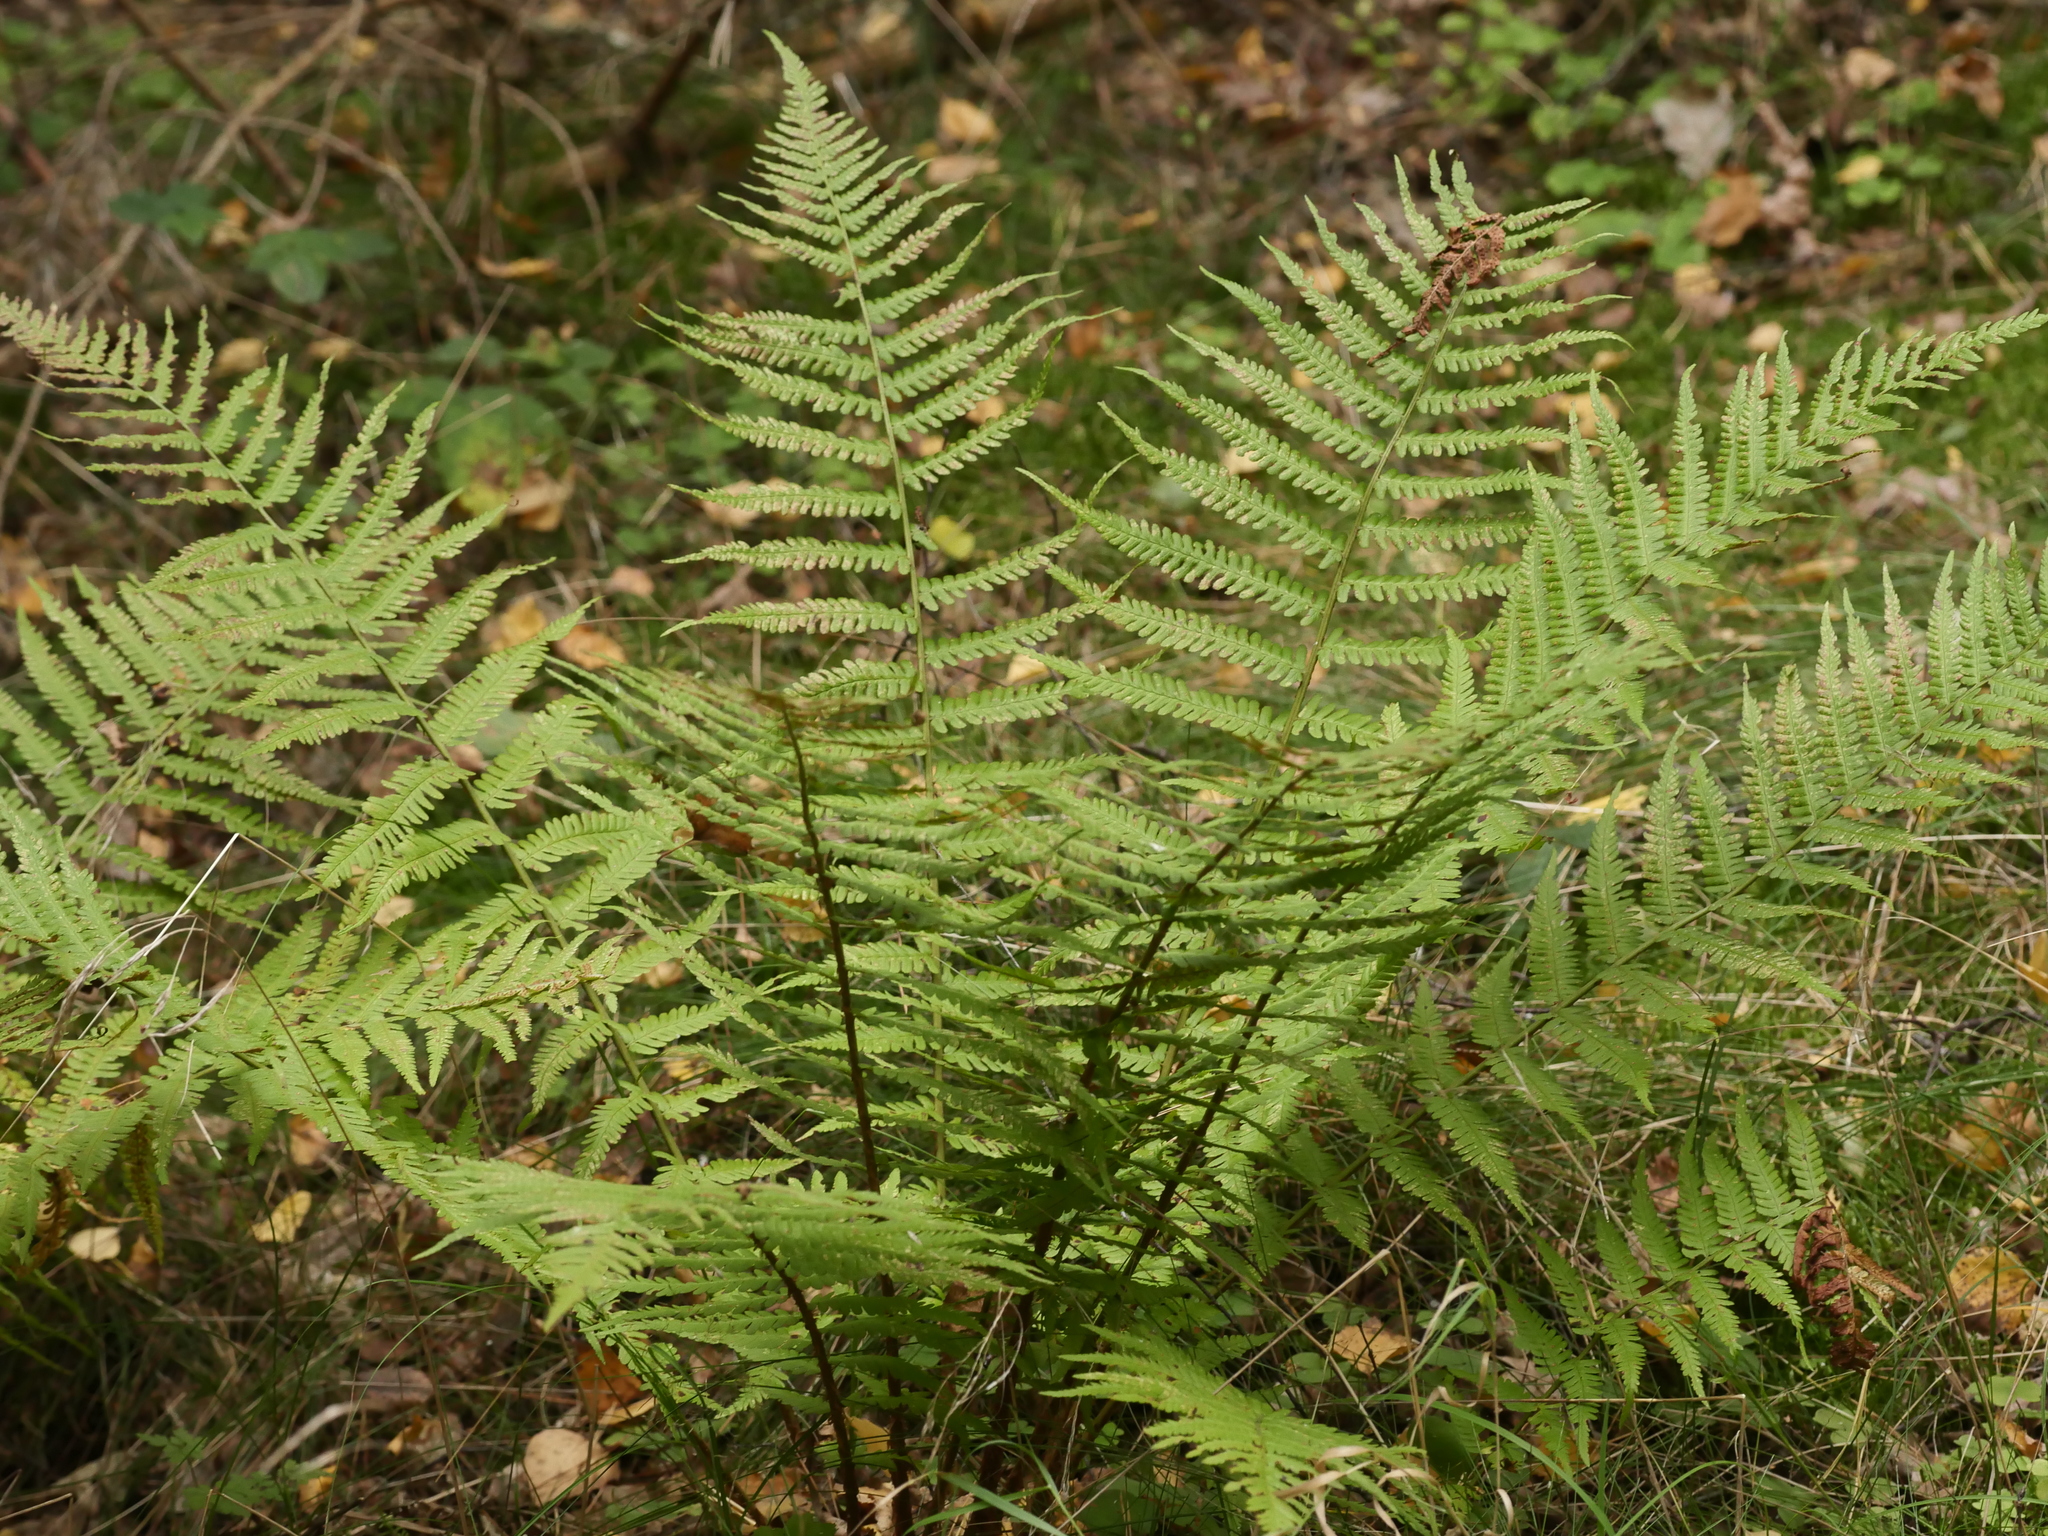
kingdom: Plantae
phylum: Tracheophyta
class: Polypodiopsida
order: Polypodiales
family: Dryopteridaceae
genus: Dryopteris
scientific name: Dryopteris filix-mas
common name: Male fern
